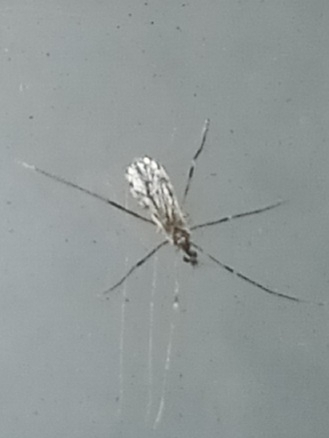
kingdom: Animalia
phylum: Arthropoda
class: Insecta
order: Diptera
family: Limoniidae
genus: Erioptera
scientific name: Erioptera parva
